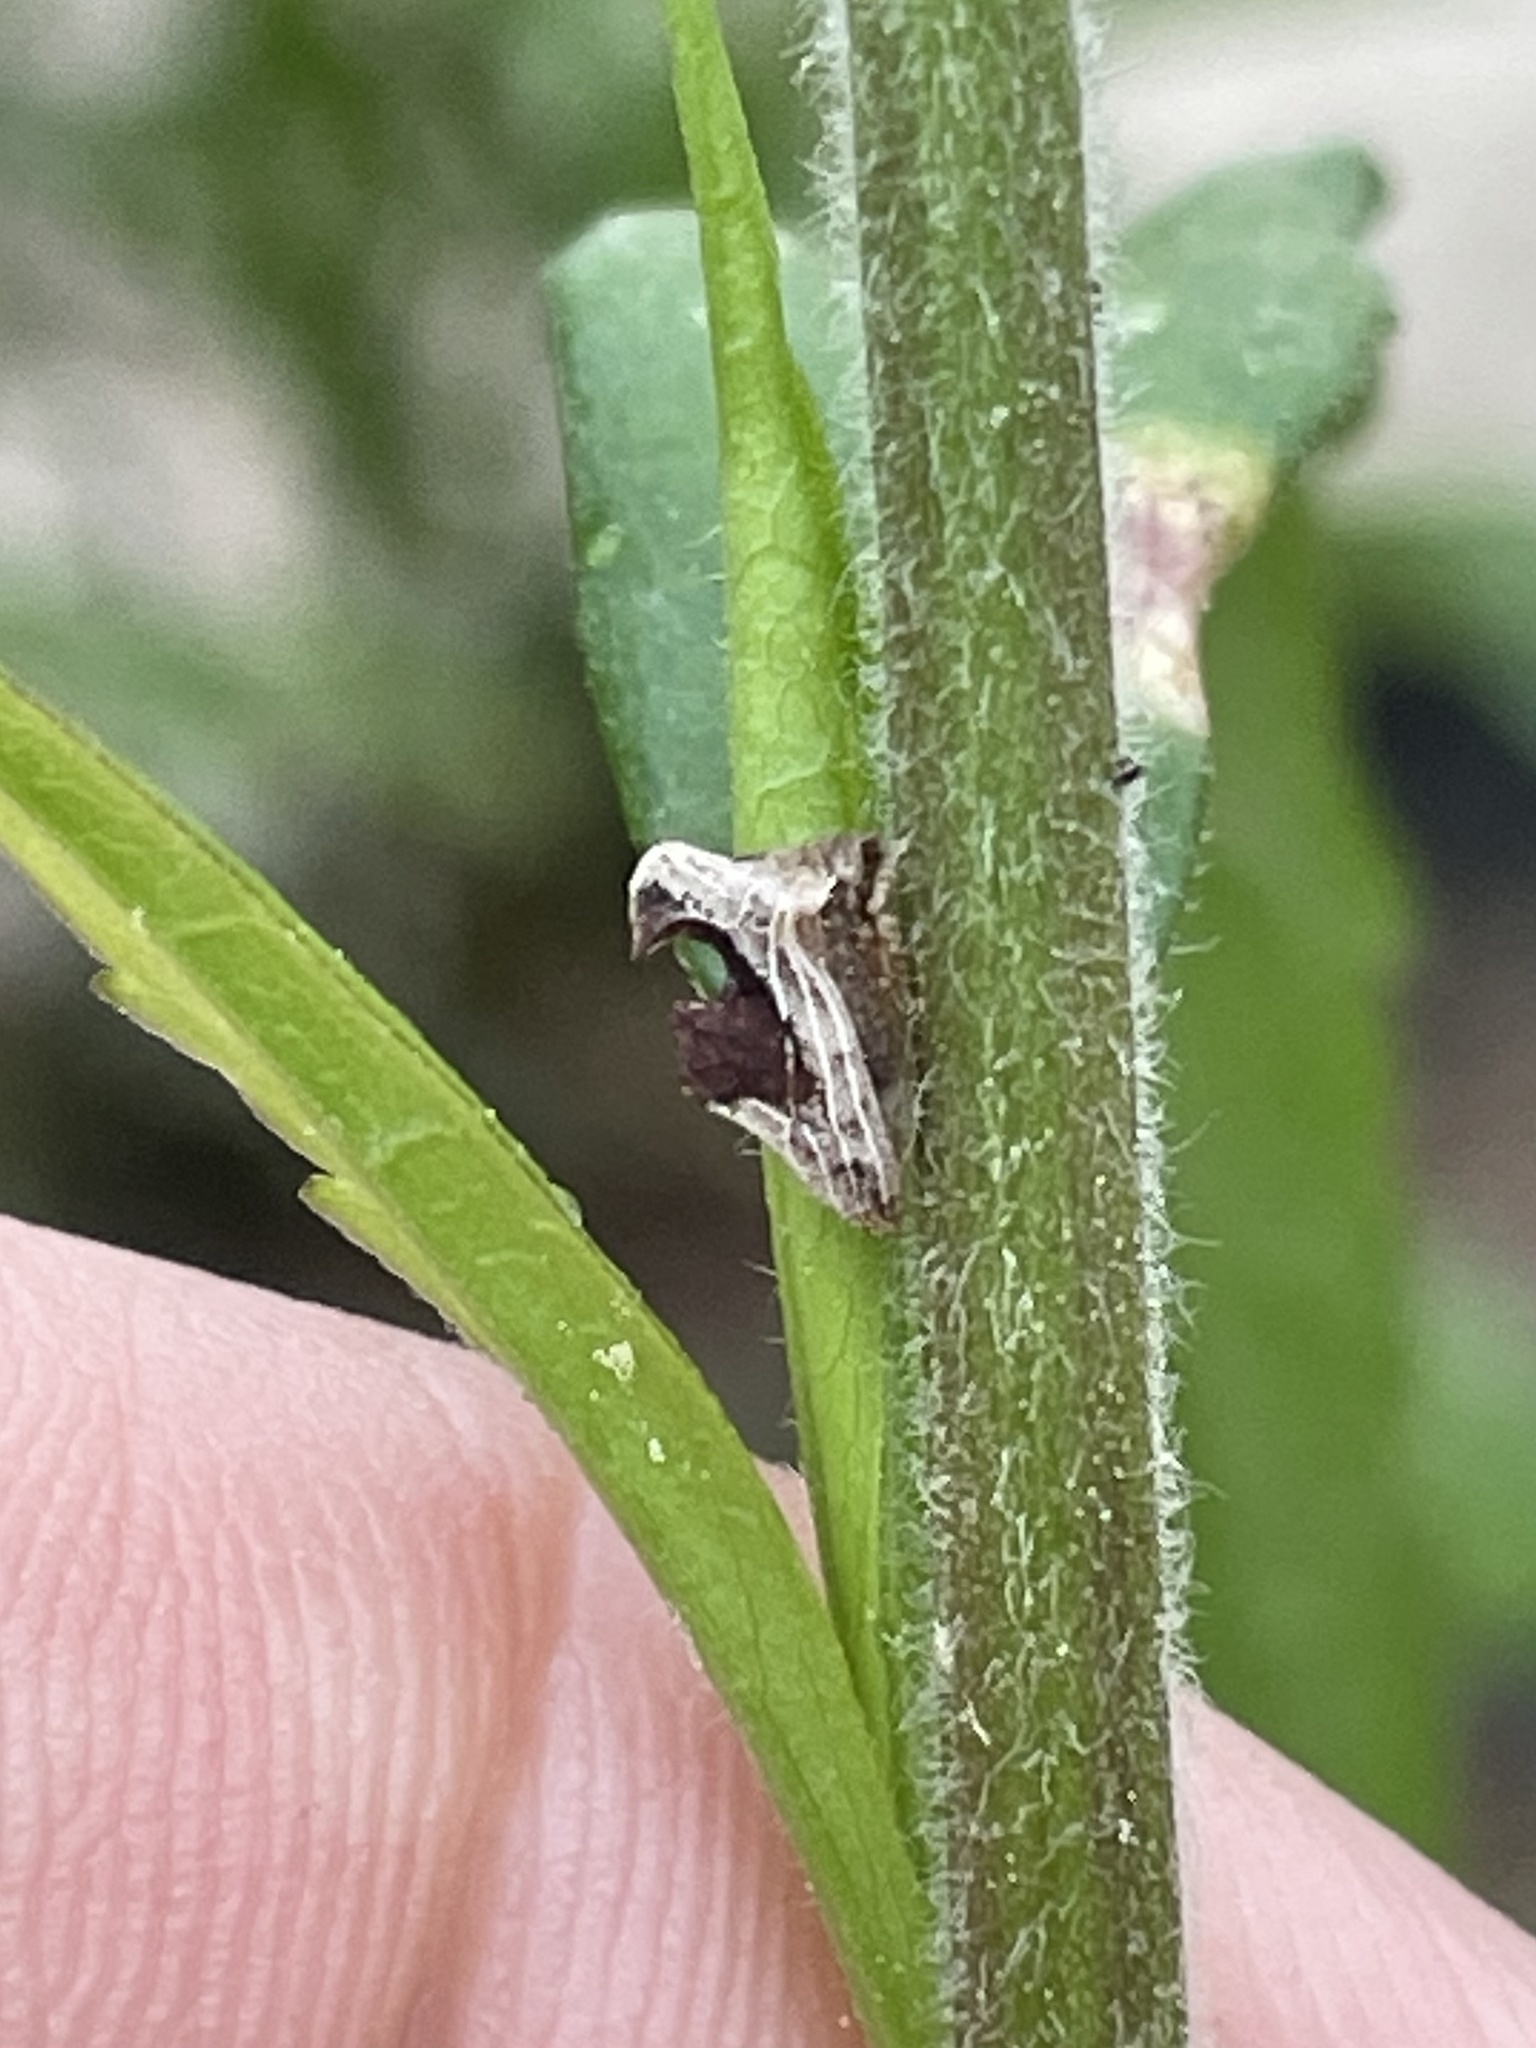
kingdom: Animalia
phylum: Arthropoda
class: Insecta
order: Hemiptera
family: Membracidae
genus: Entylia
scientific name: Entylia carinata
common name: Keeled treehopper
